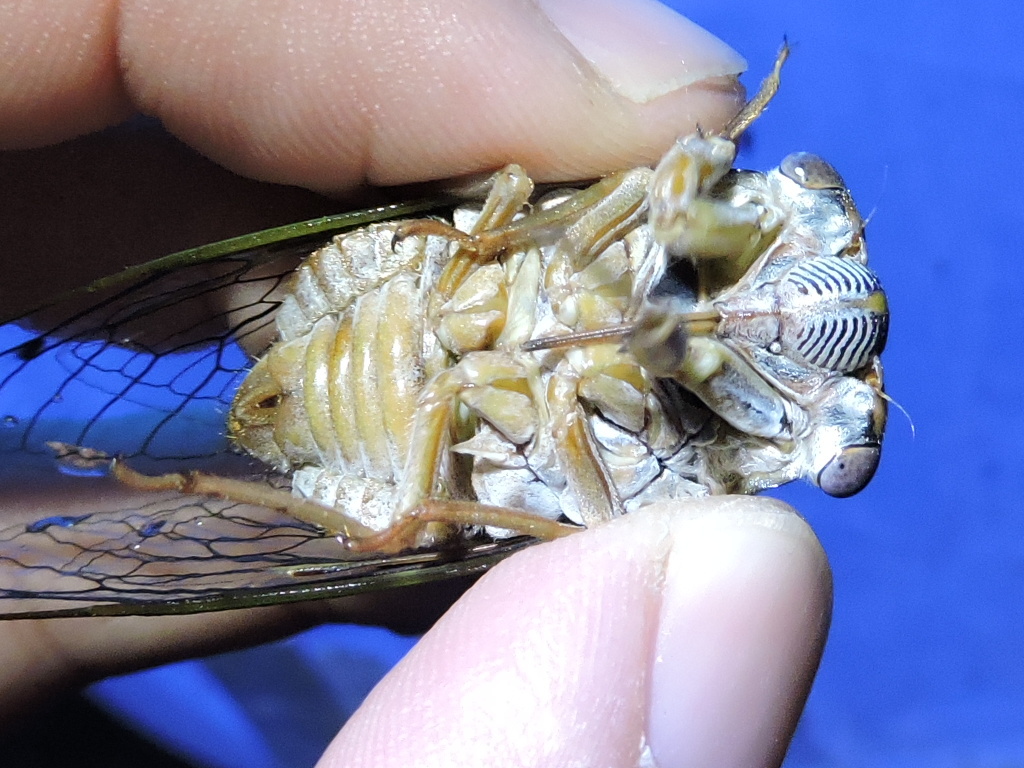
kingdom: Animalia
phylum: Arthropoda
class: Insecta
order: Hemiptera
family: Cicadidae
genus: Megatibicen
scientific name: Megatibicen resh
